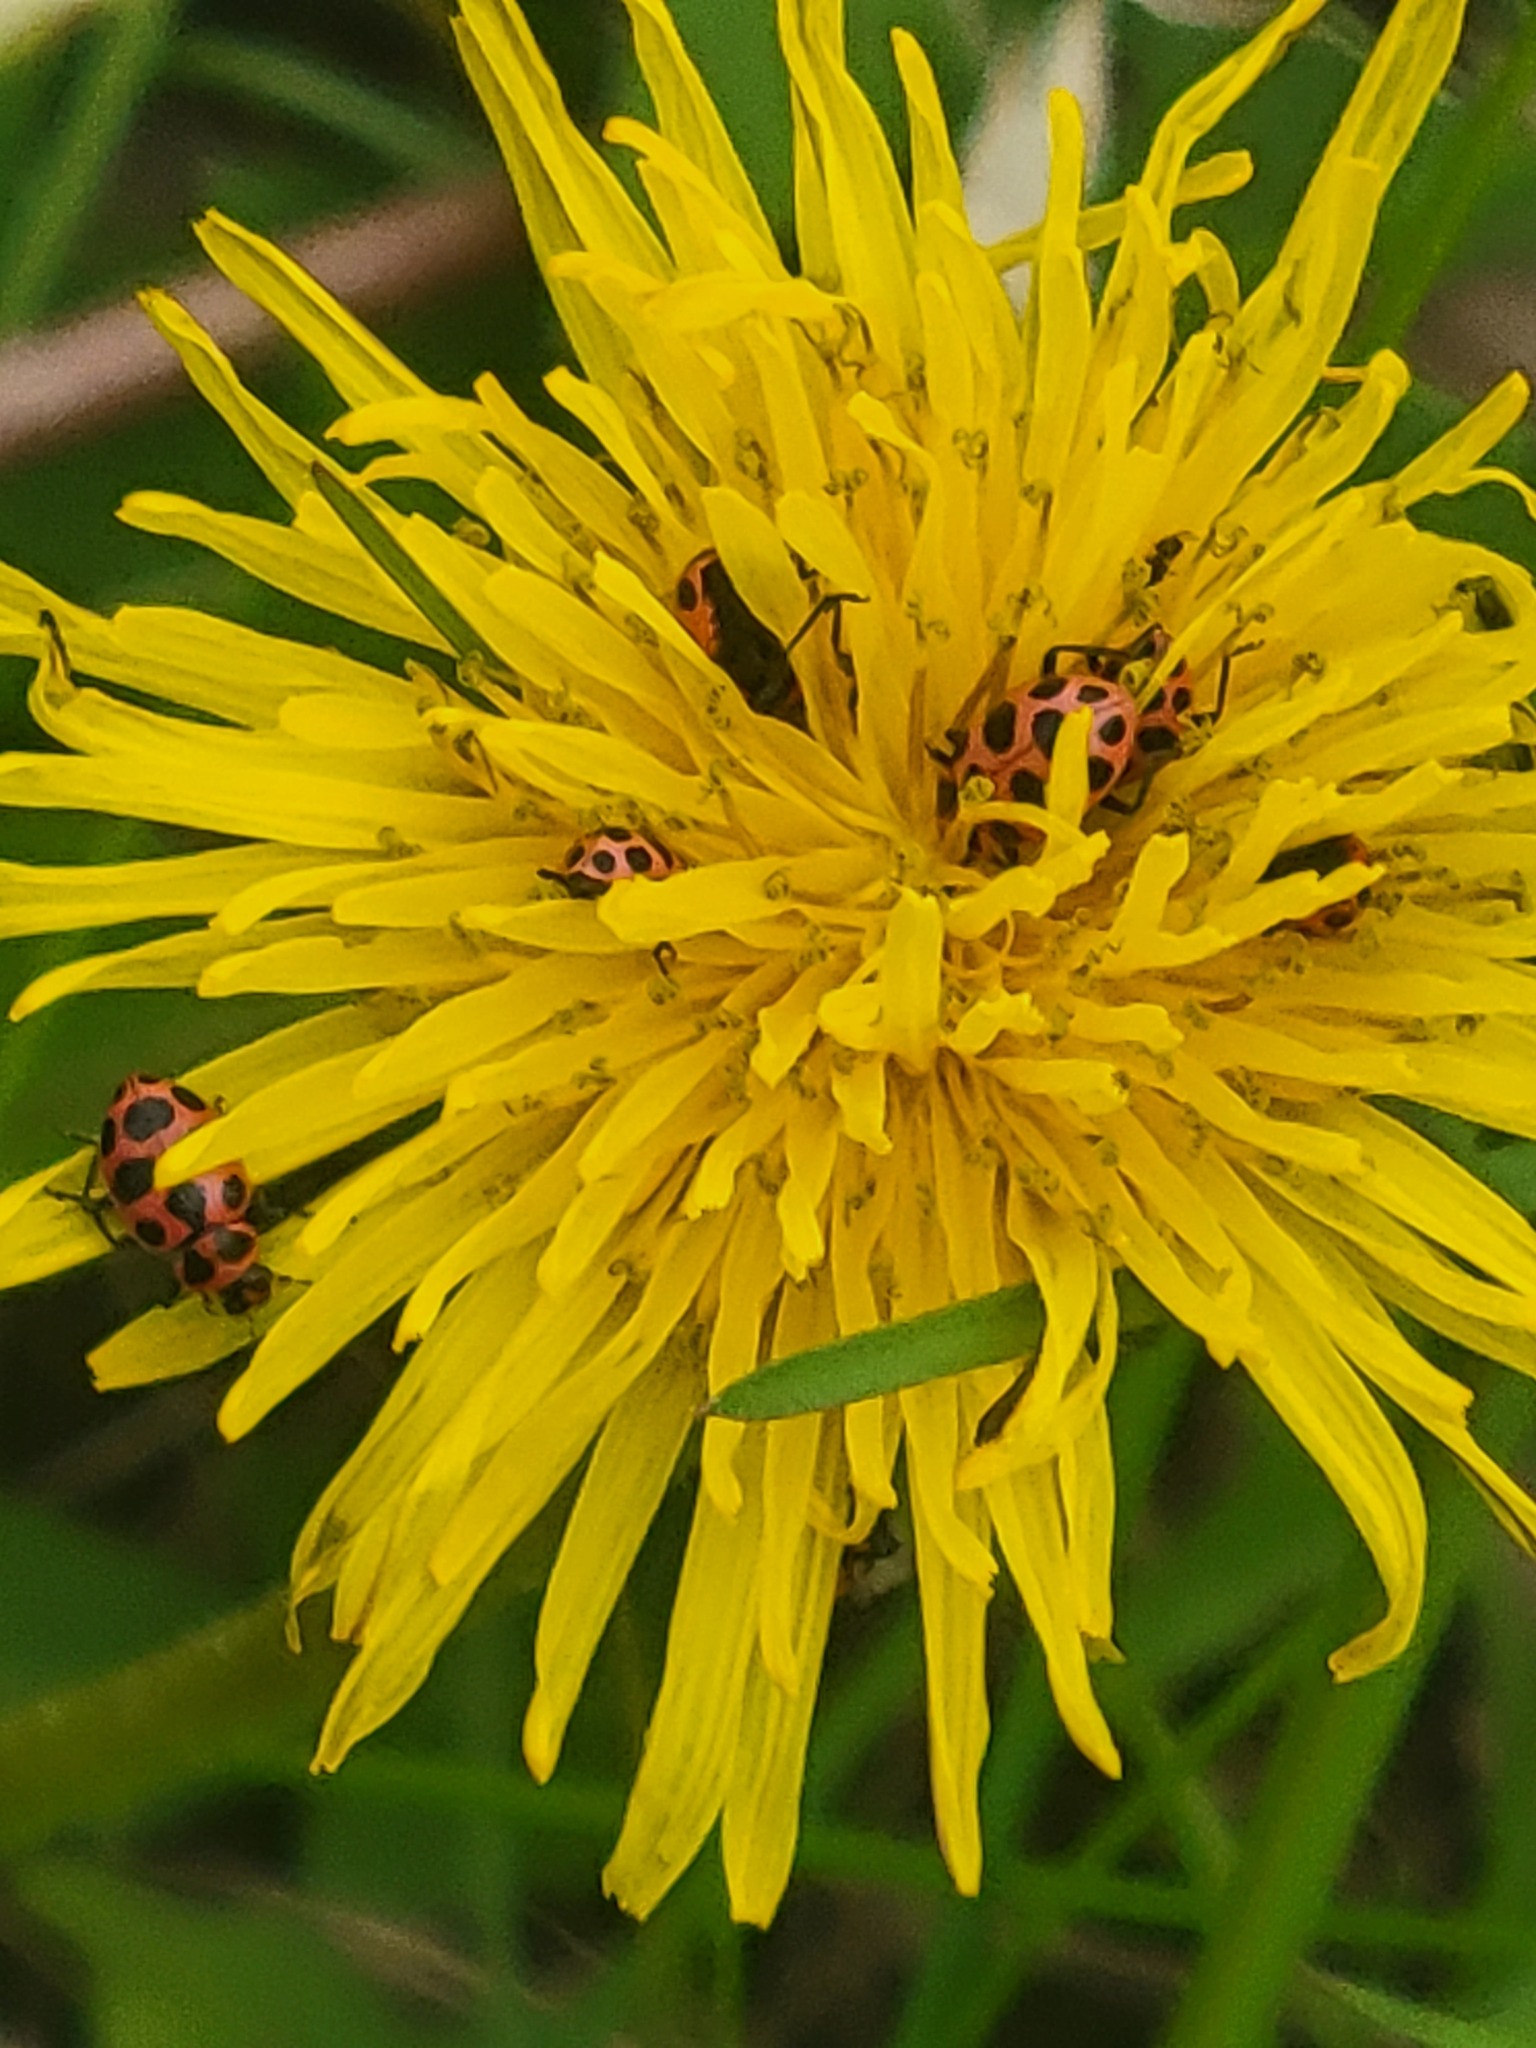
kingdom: Animalia
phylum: Arthropoda
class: Insecta
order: Coleoptera
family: Coccinellidae
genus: Coleomegilla
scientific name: Coleomegilla maculata
